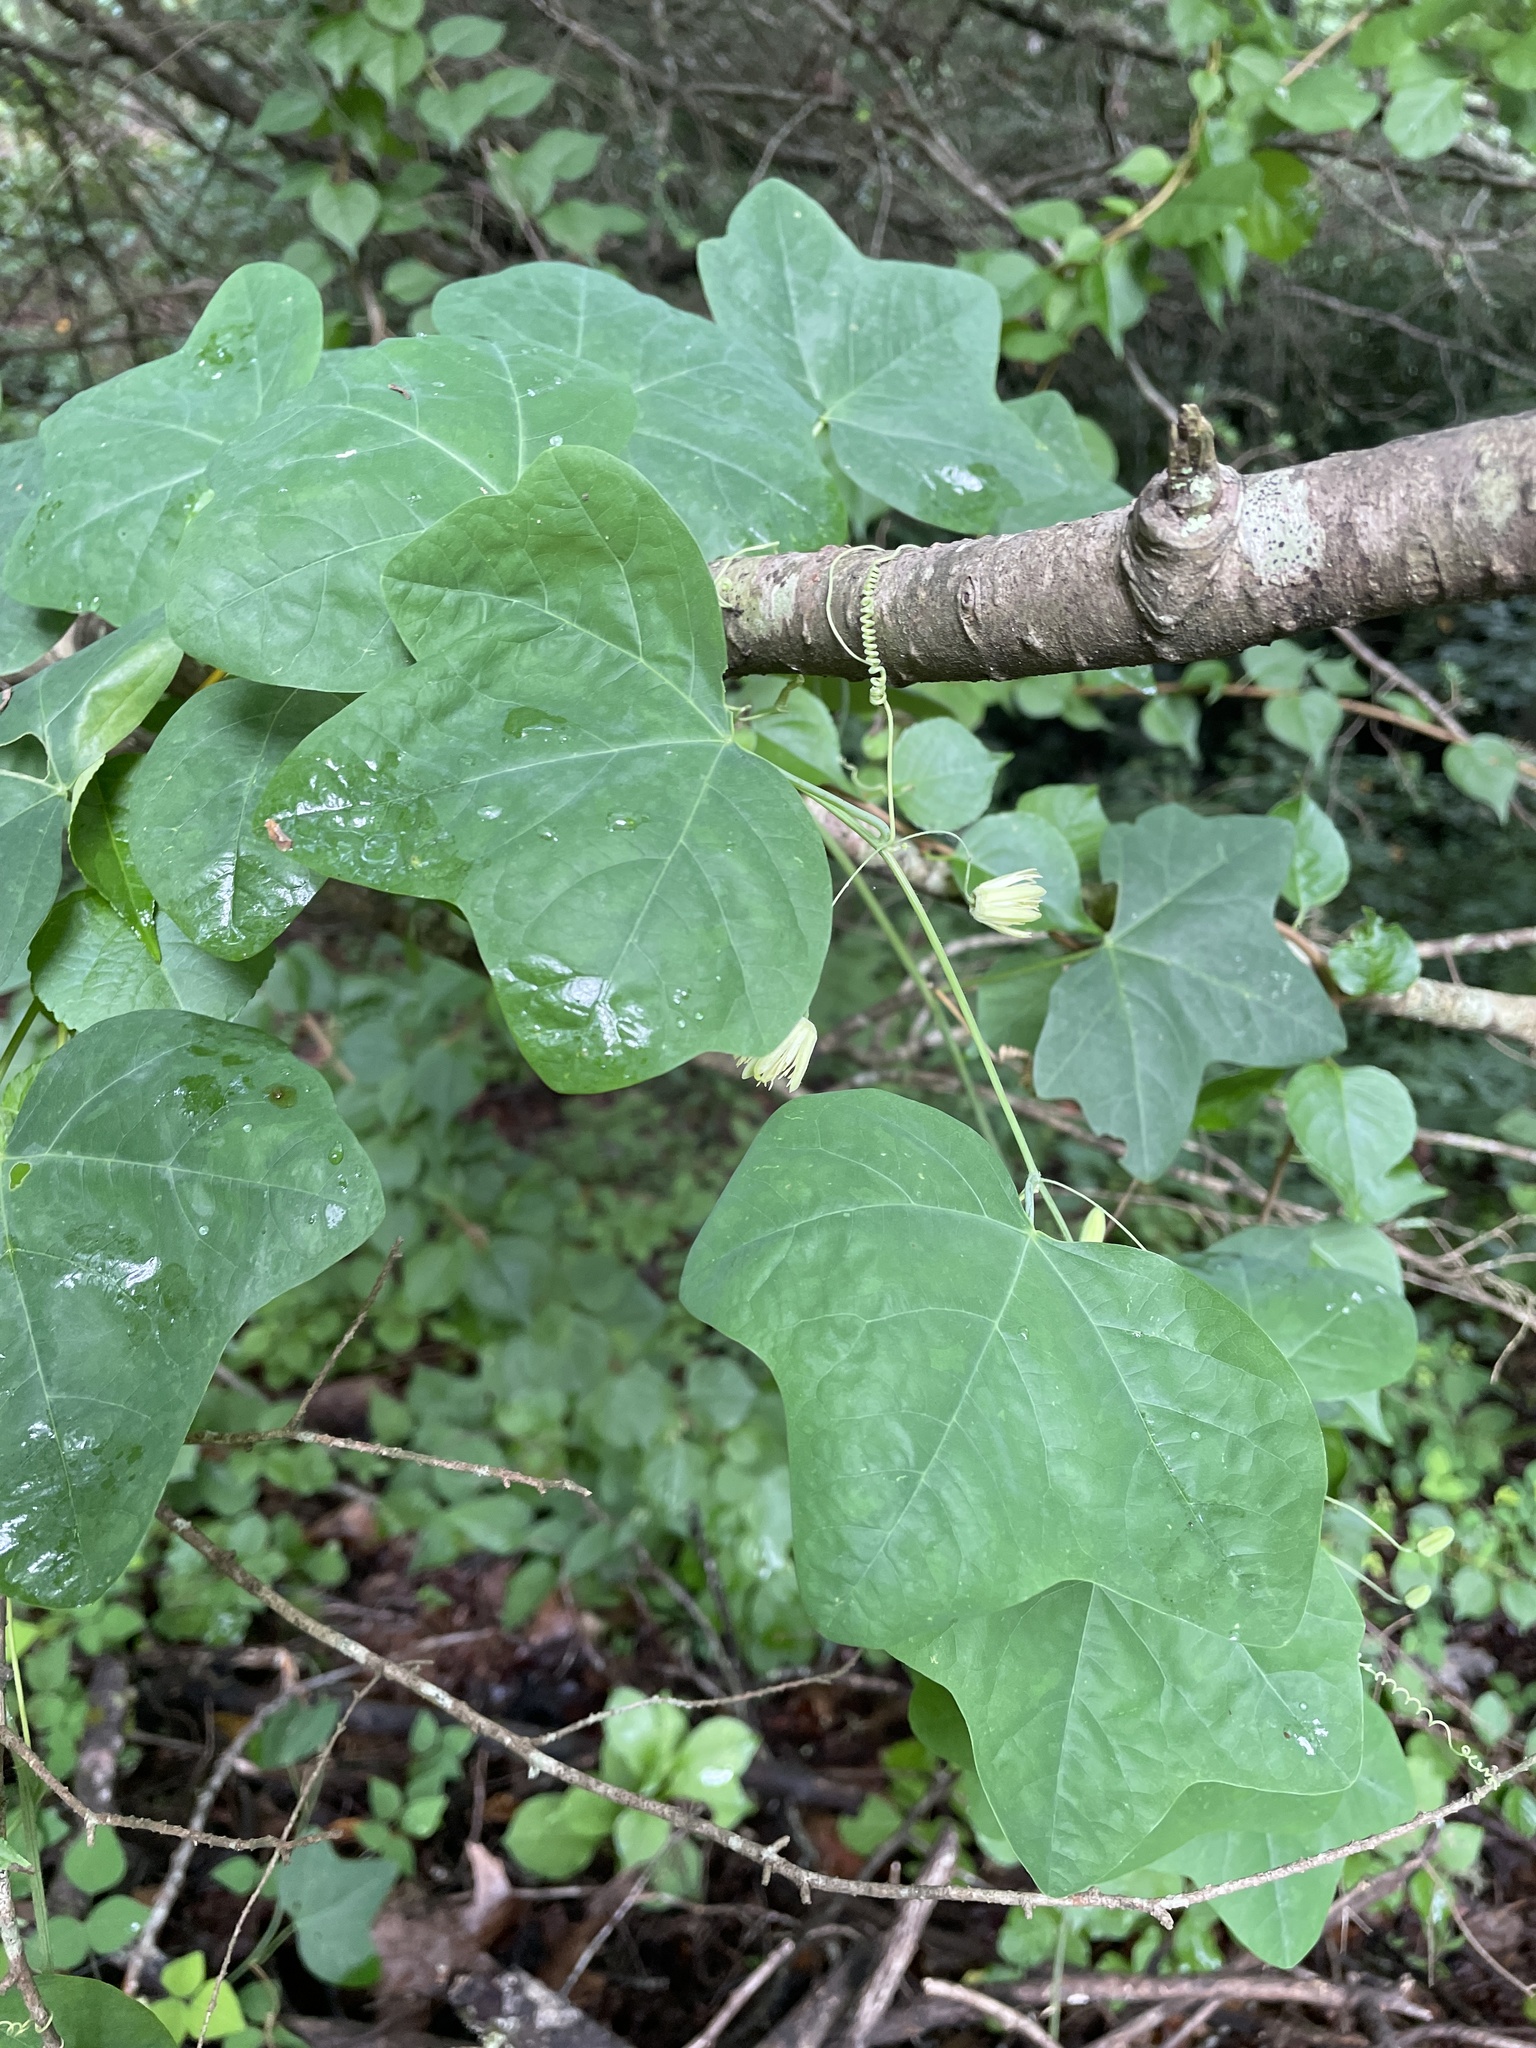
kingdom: Plantae
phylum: Tracheophyta
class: Magnoliopsida
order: Malpighiales
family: Passifloraceae
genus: Passiflora
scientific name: Passiflora lutea
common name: Yellow passionflower
